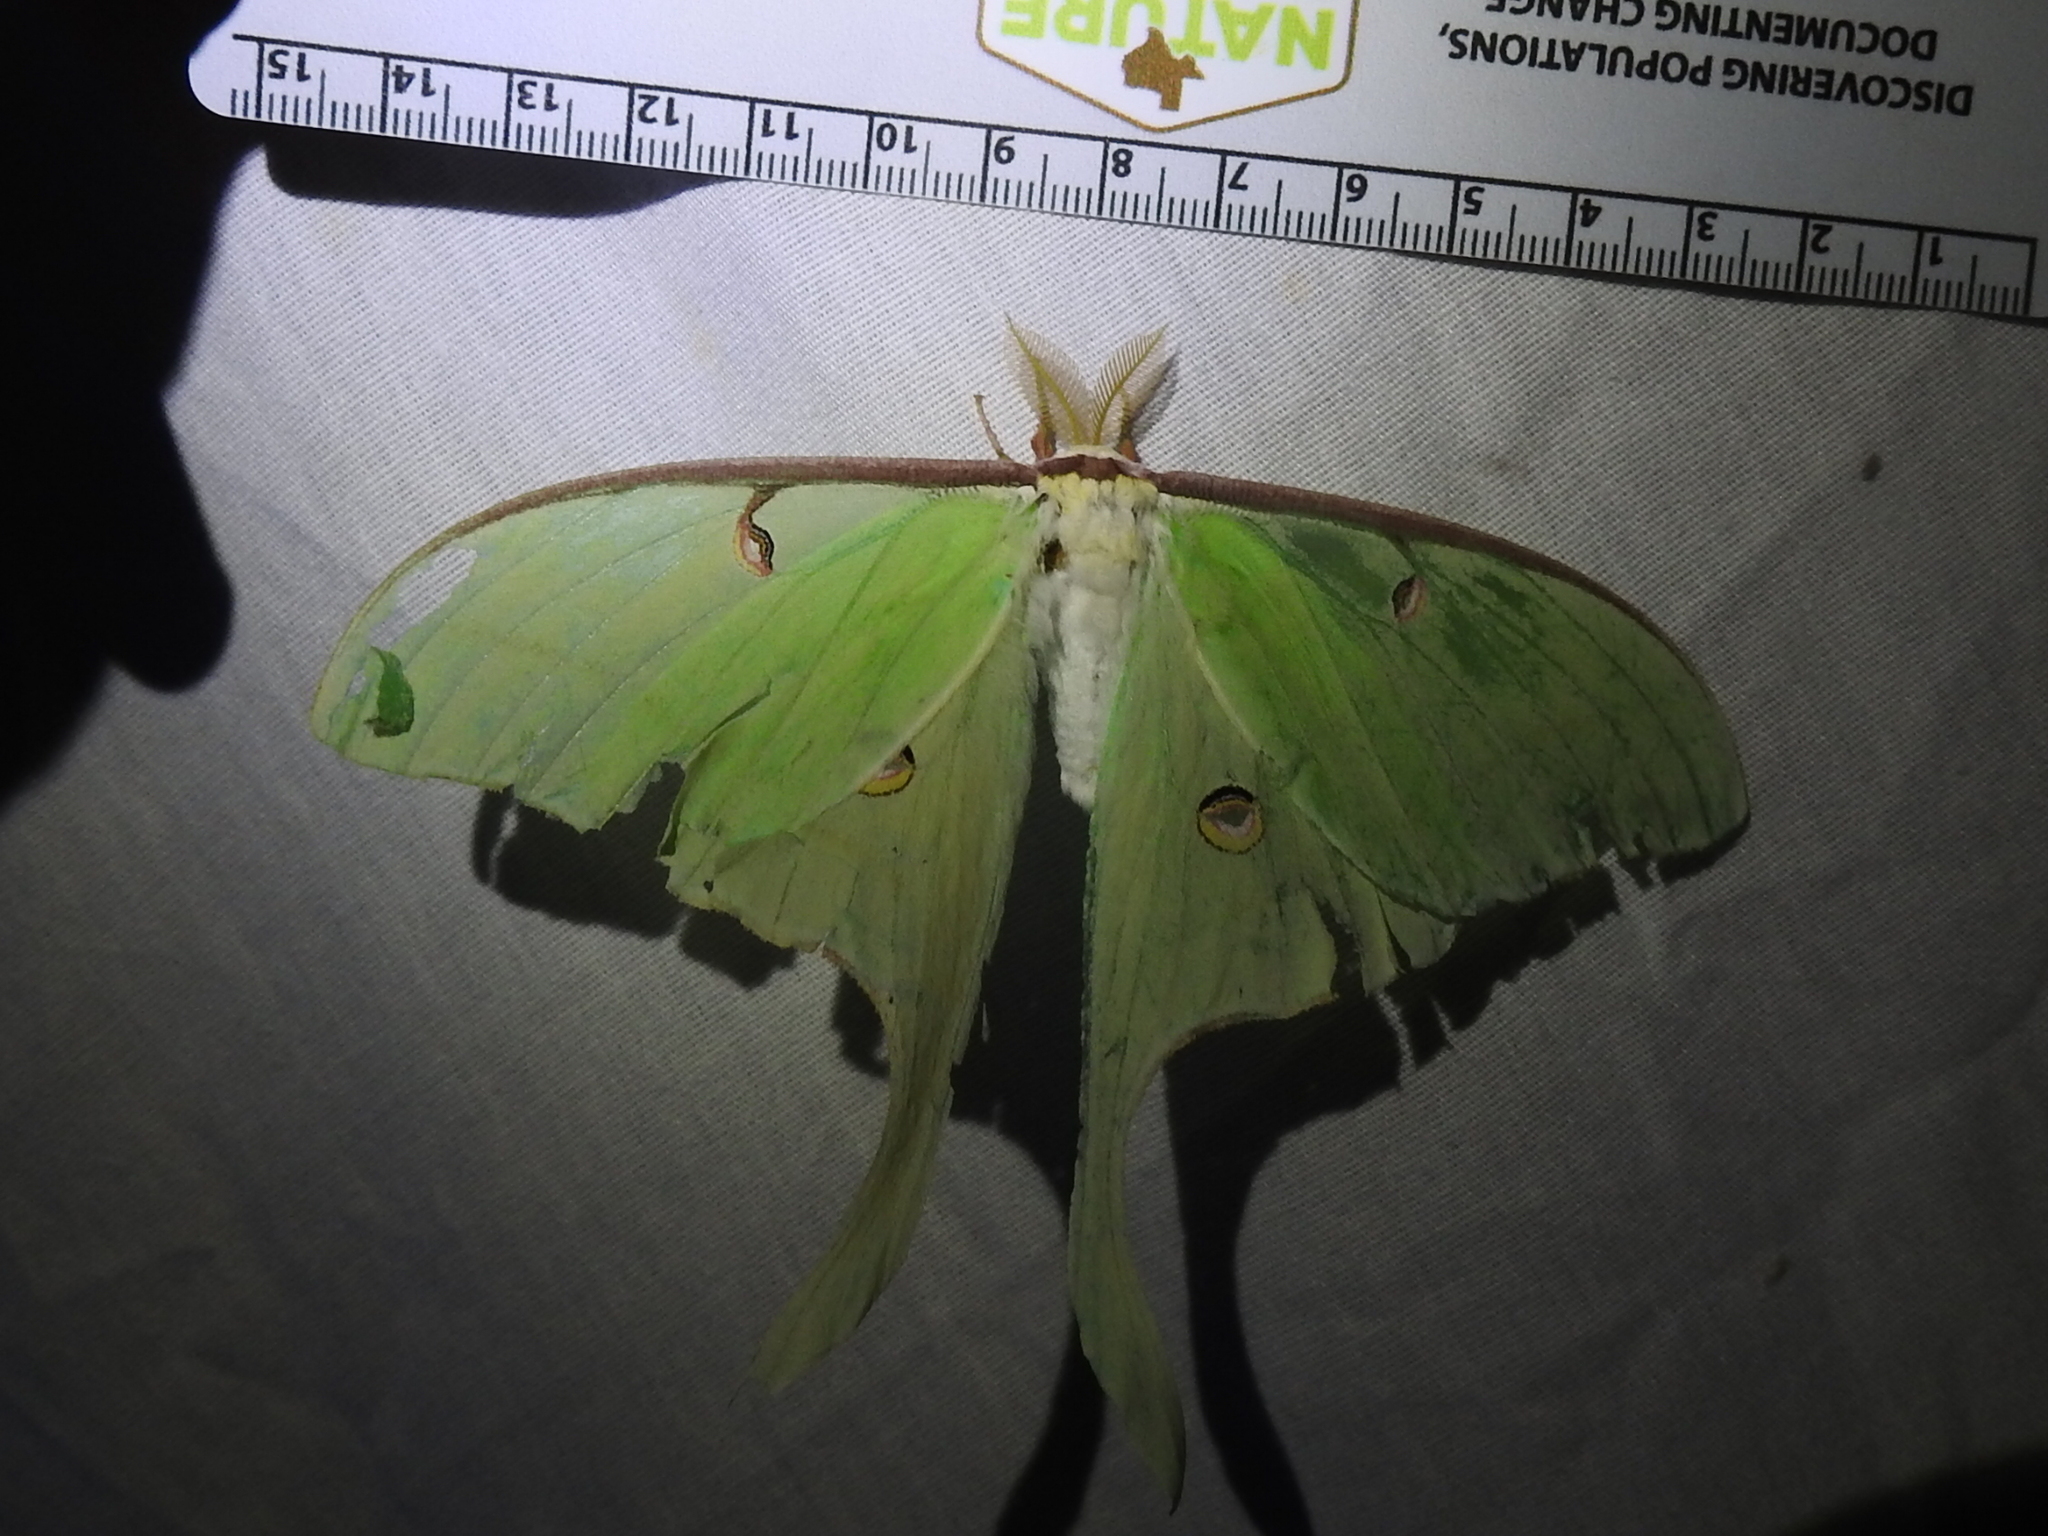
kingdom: Animalia
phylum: Arthropoda
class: Insecta
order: Lepidoptera
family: Saturniidae
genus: Actias
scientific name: Actias luna
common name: Luna moth
